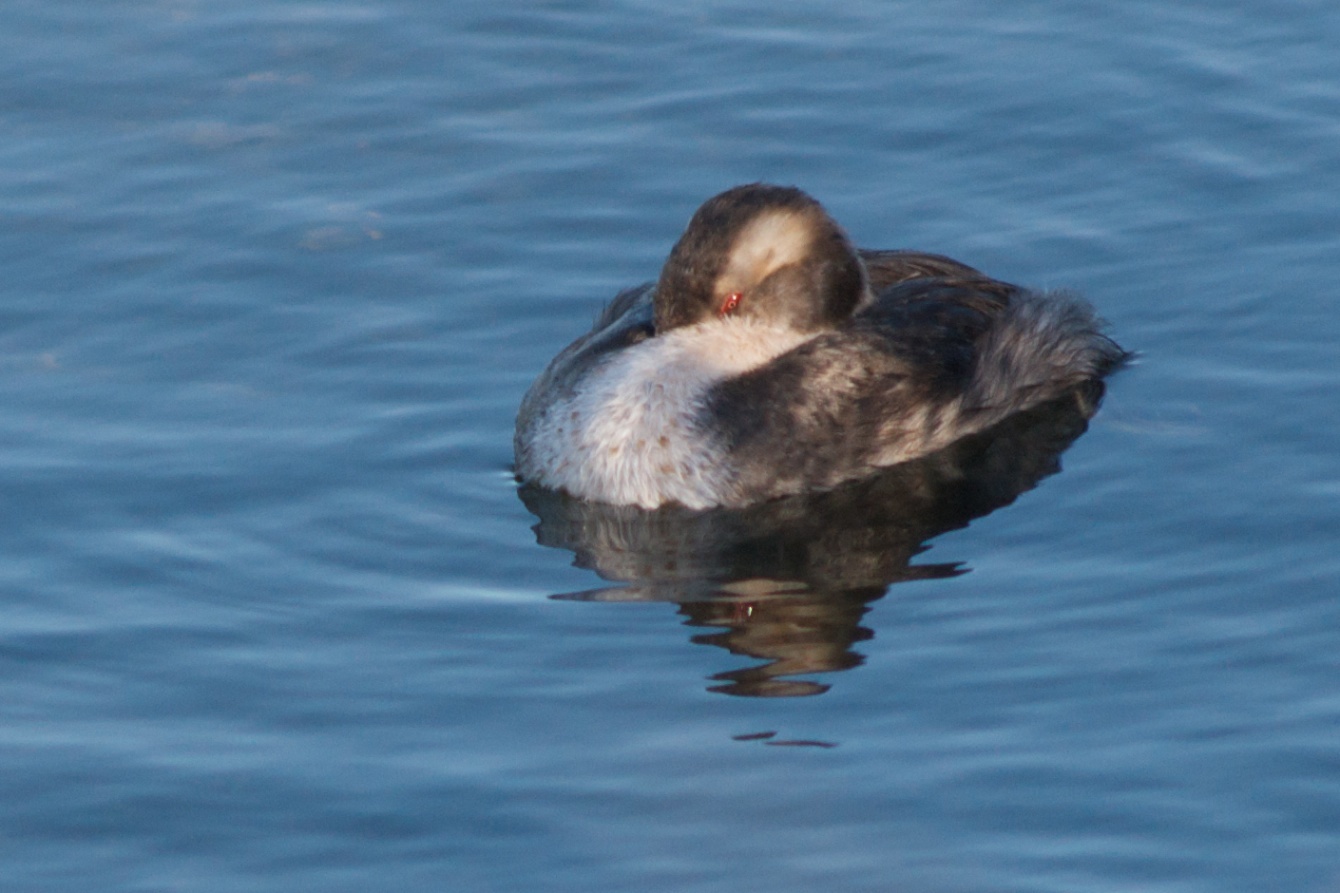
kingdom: Animalia
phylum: Chordata
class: Aves
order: Podicipediformes
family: Podicipedidae
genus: Podiceps
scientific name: Podiceps auritus
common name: Horned grebe
